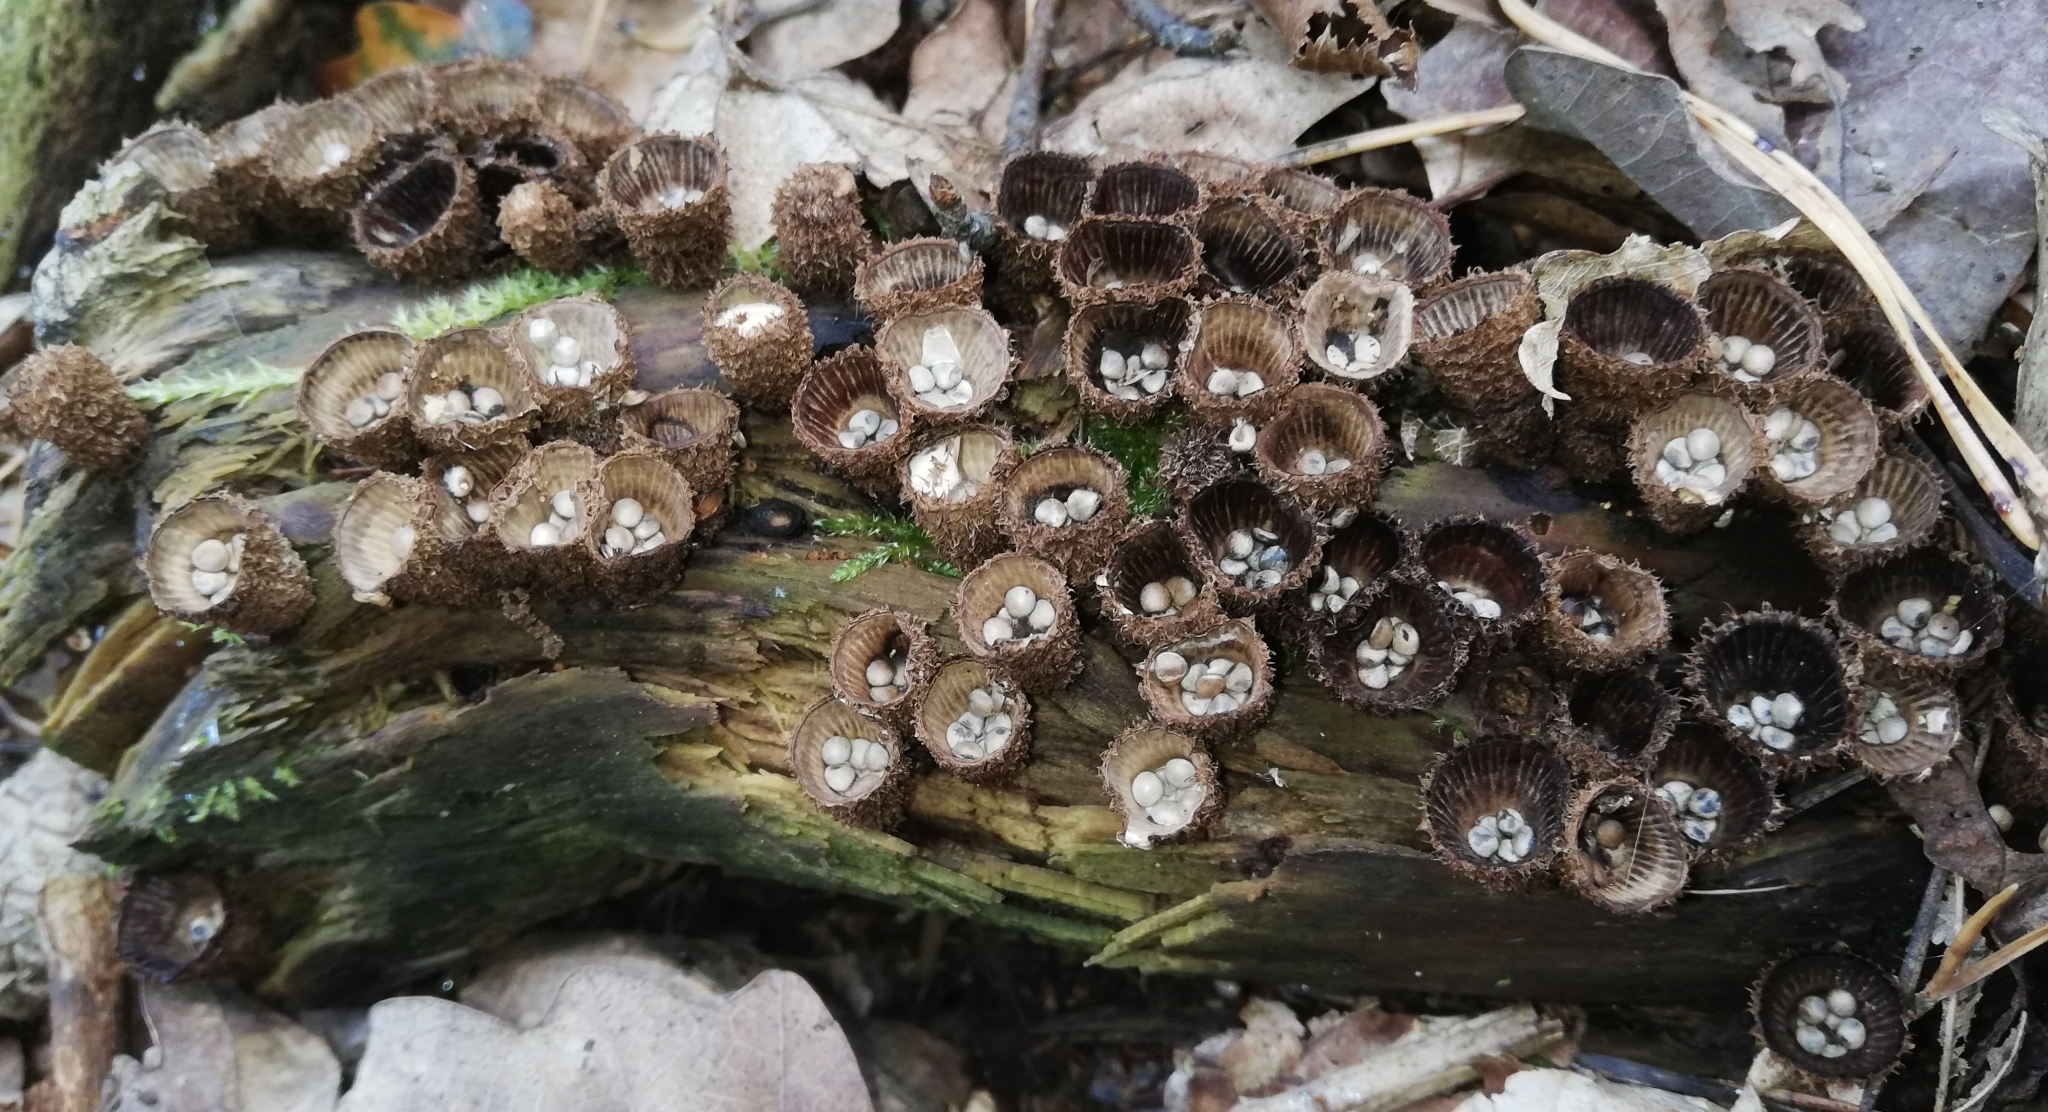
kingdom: Fungi
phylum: Basidiomycota
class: Agaricomycetes
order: Agaricales
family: Agaricaceae
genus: Cyathus
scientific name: Cyathus striatus
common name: Fluted bird's nest
